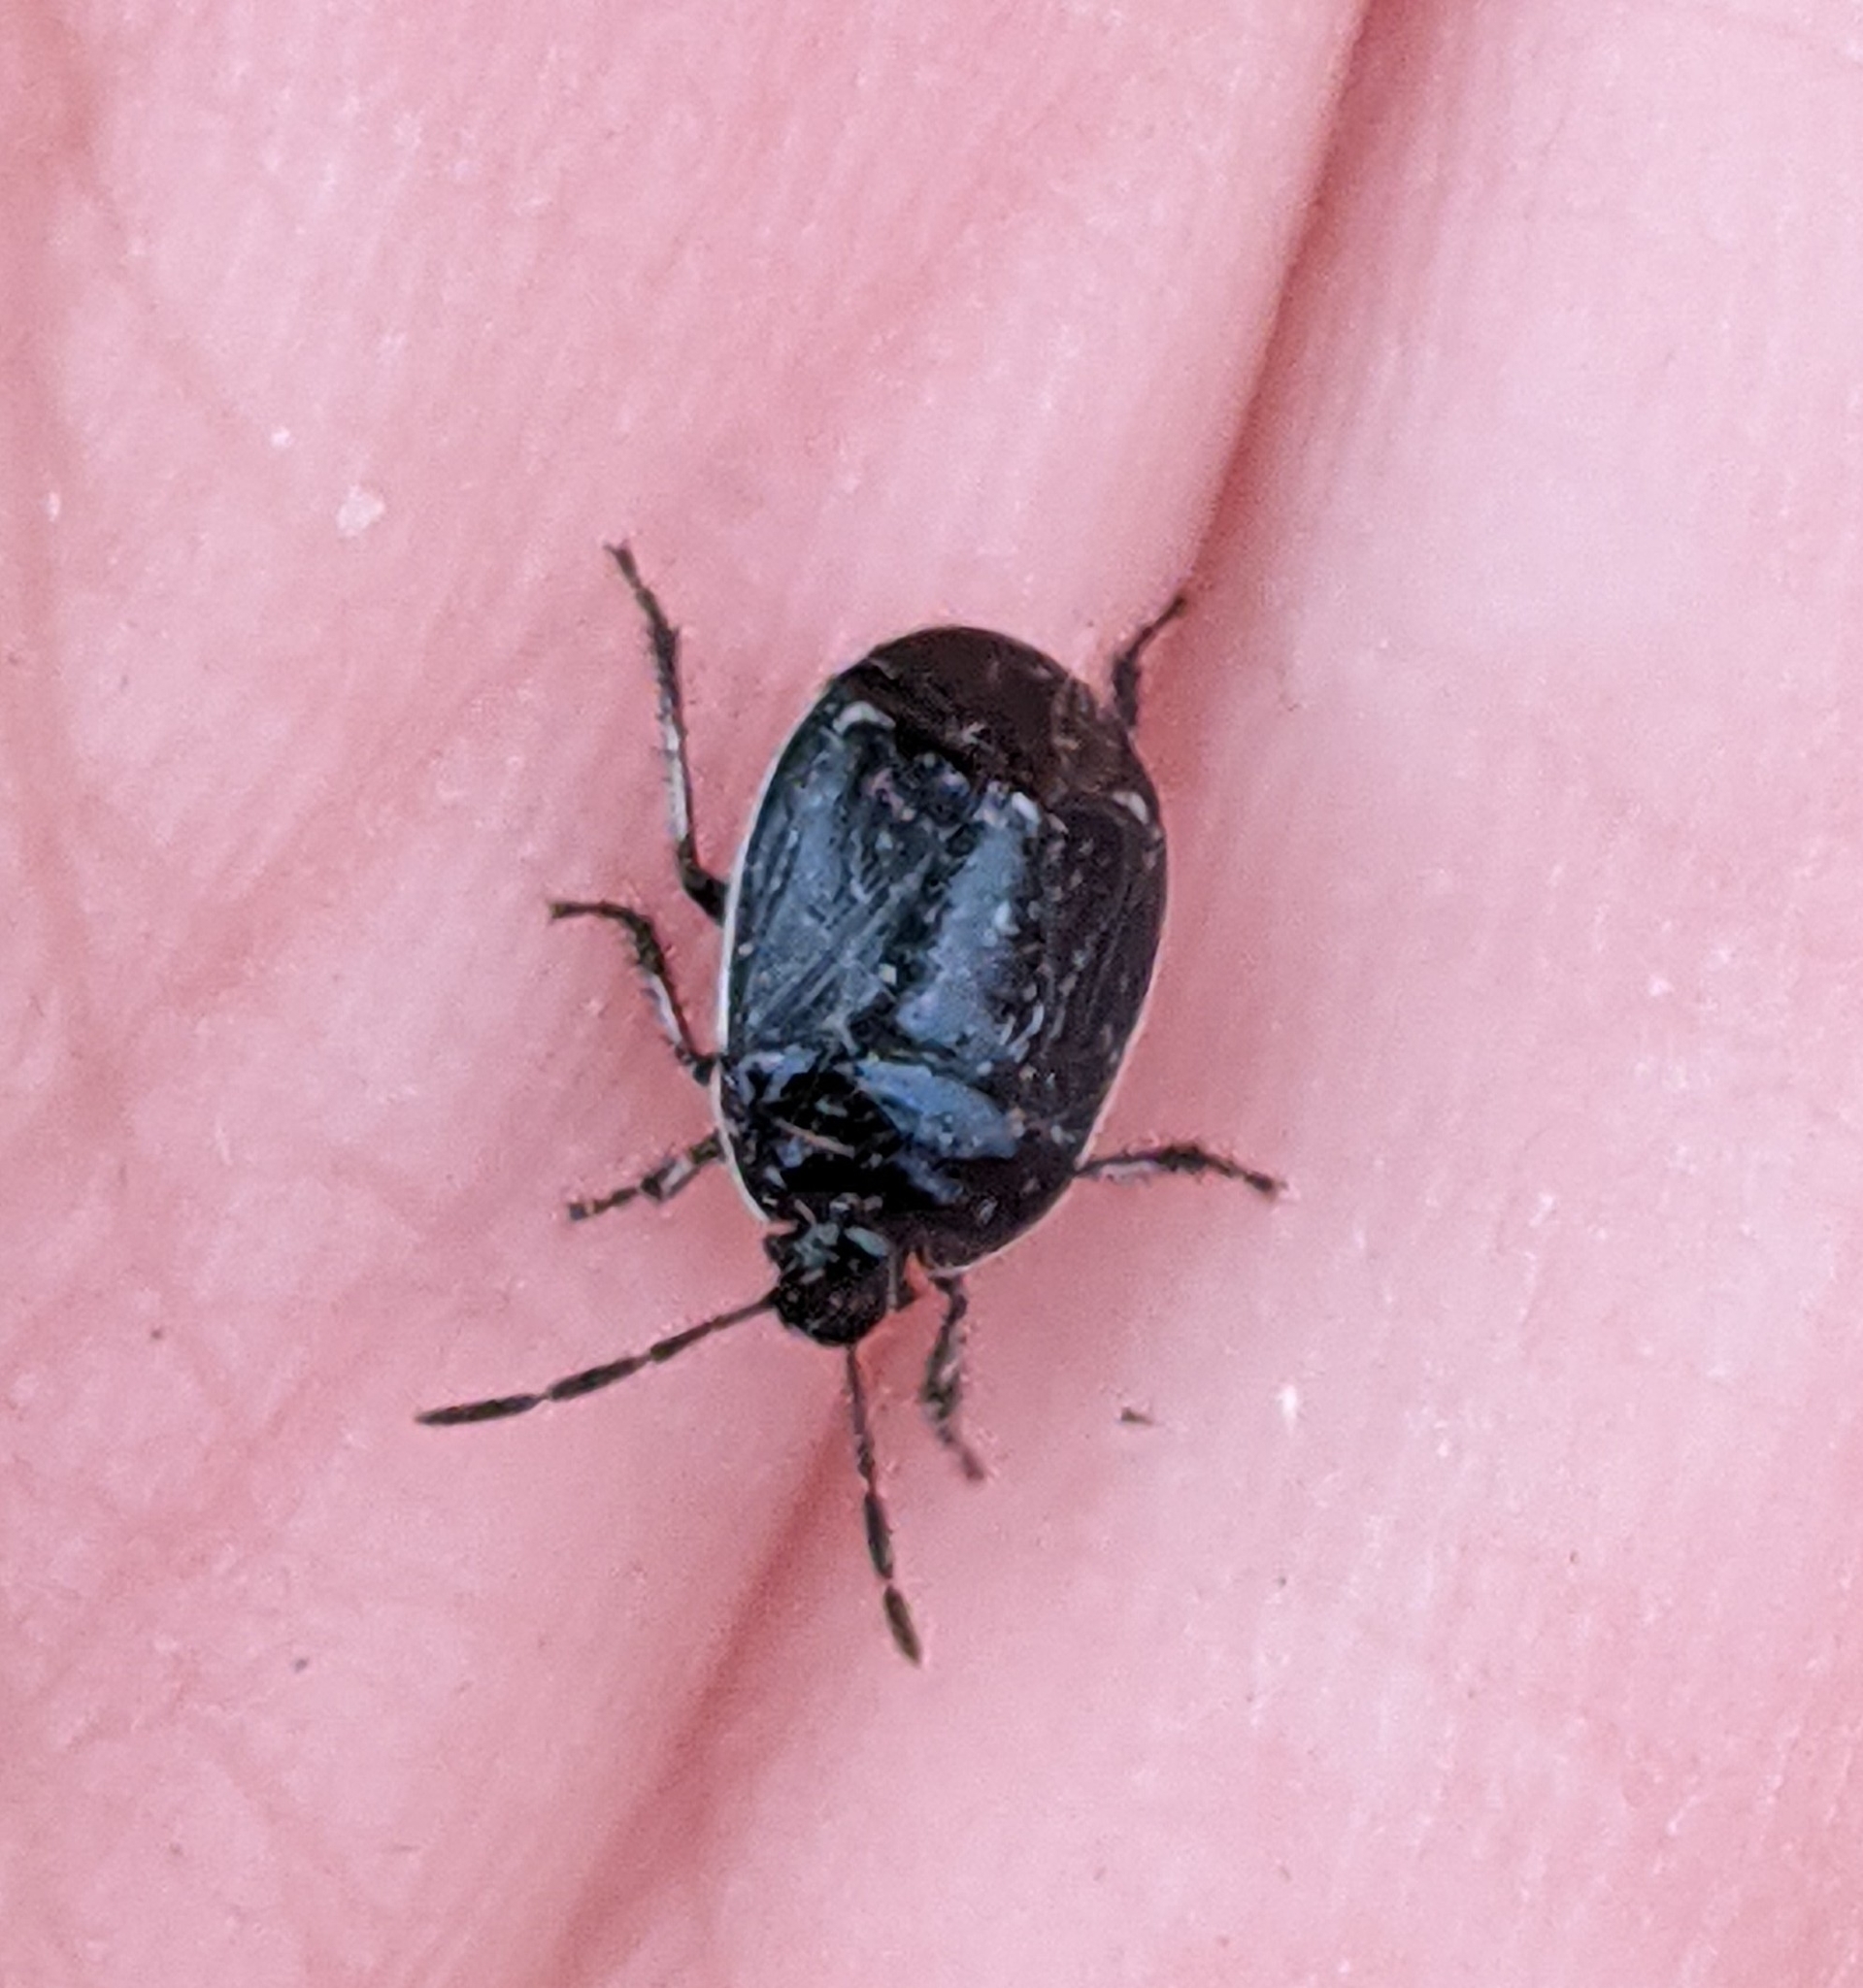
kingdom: Animalia
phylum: Arthropoda
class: Insecta
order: Hemiptera
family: Cydnidae
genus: Sehirus
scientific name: Sehirus cinctus
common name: White-margined burrower bug
